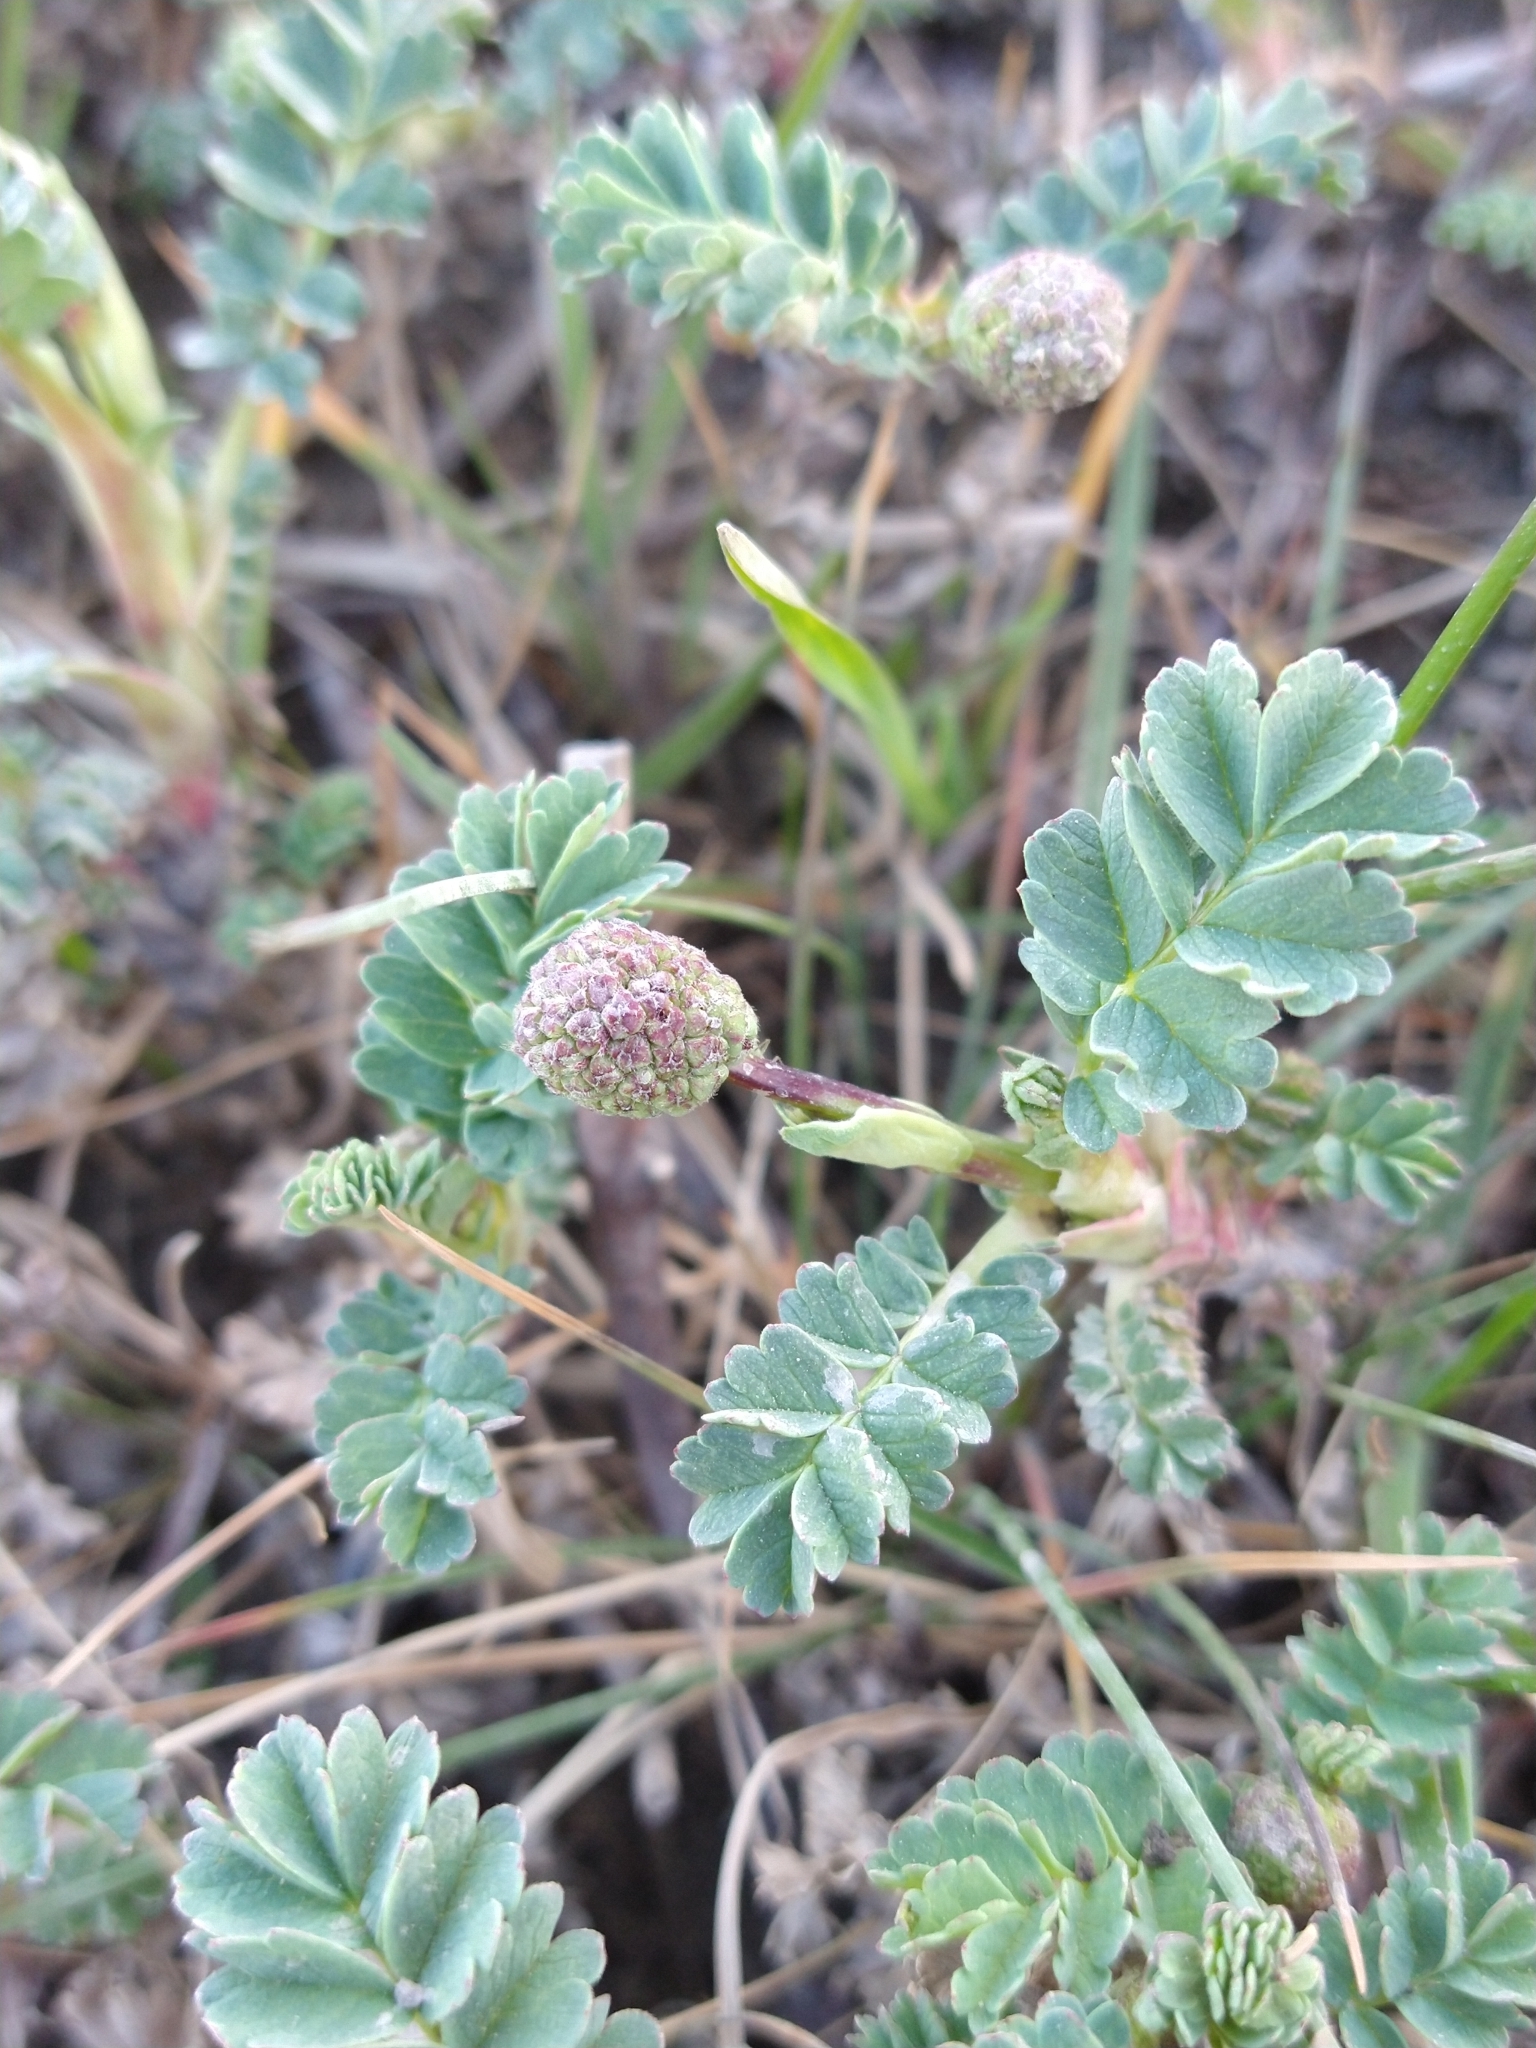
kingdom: Plantae
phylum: Tracheophyta
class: Magnoliopsida
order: Rosales
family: Rosaceae
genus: Acaena
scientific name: Acaena magellanica
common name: New zealand burr
